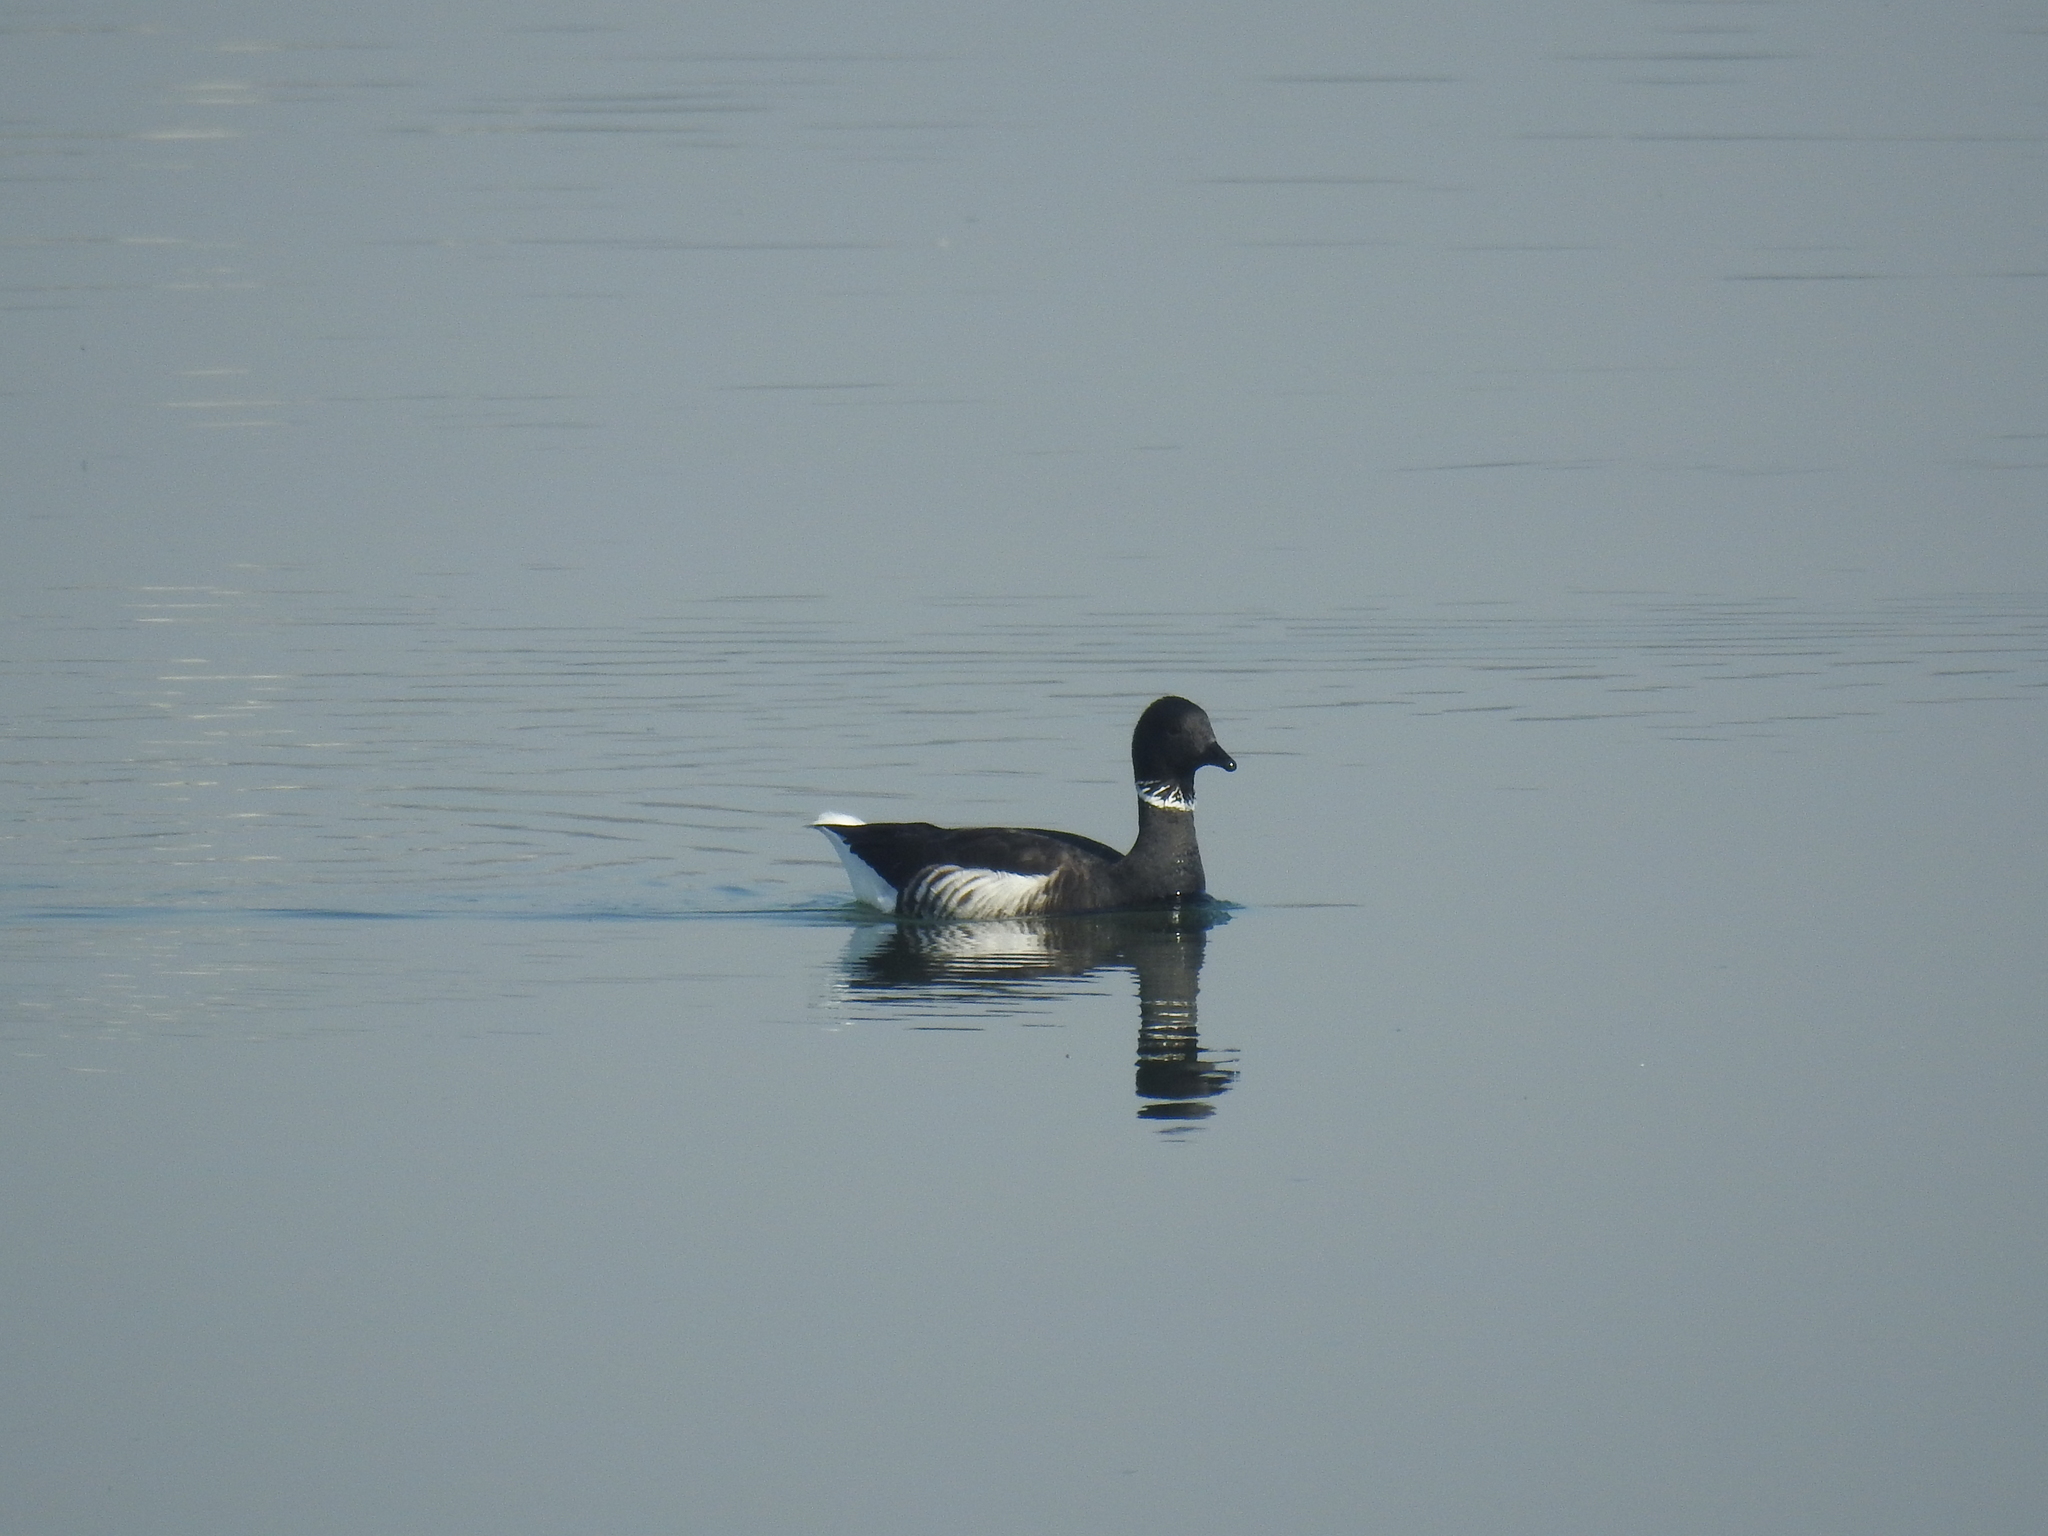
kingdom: Animalia
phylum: Chordata
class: Aves
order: Anseriformes
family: Anatidae
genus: Branta
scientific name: Branta bernicla
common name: Brant goose
